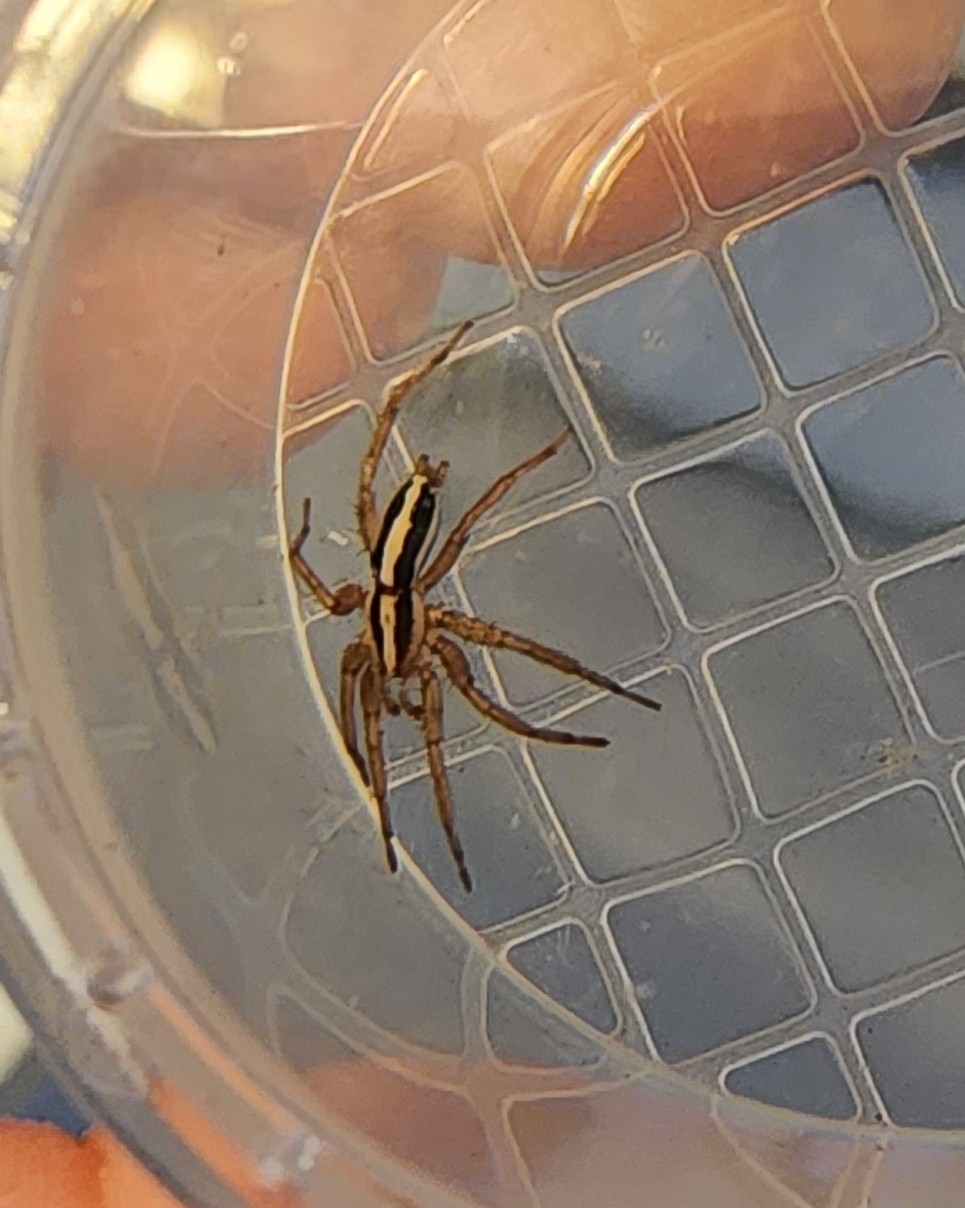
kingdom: Animalia
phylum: Arthropoda
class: Arachnida
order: Araneae
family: Gnaphosidae
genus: Cesonia
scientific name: Cesonia bilineata
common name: Two-lined stealthy ground spider
